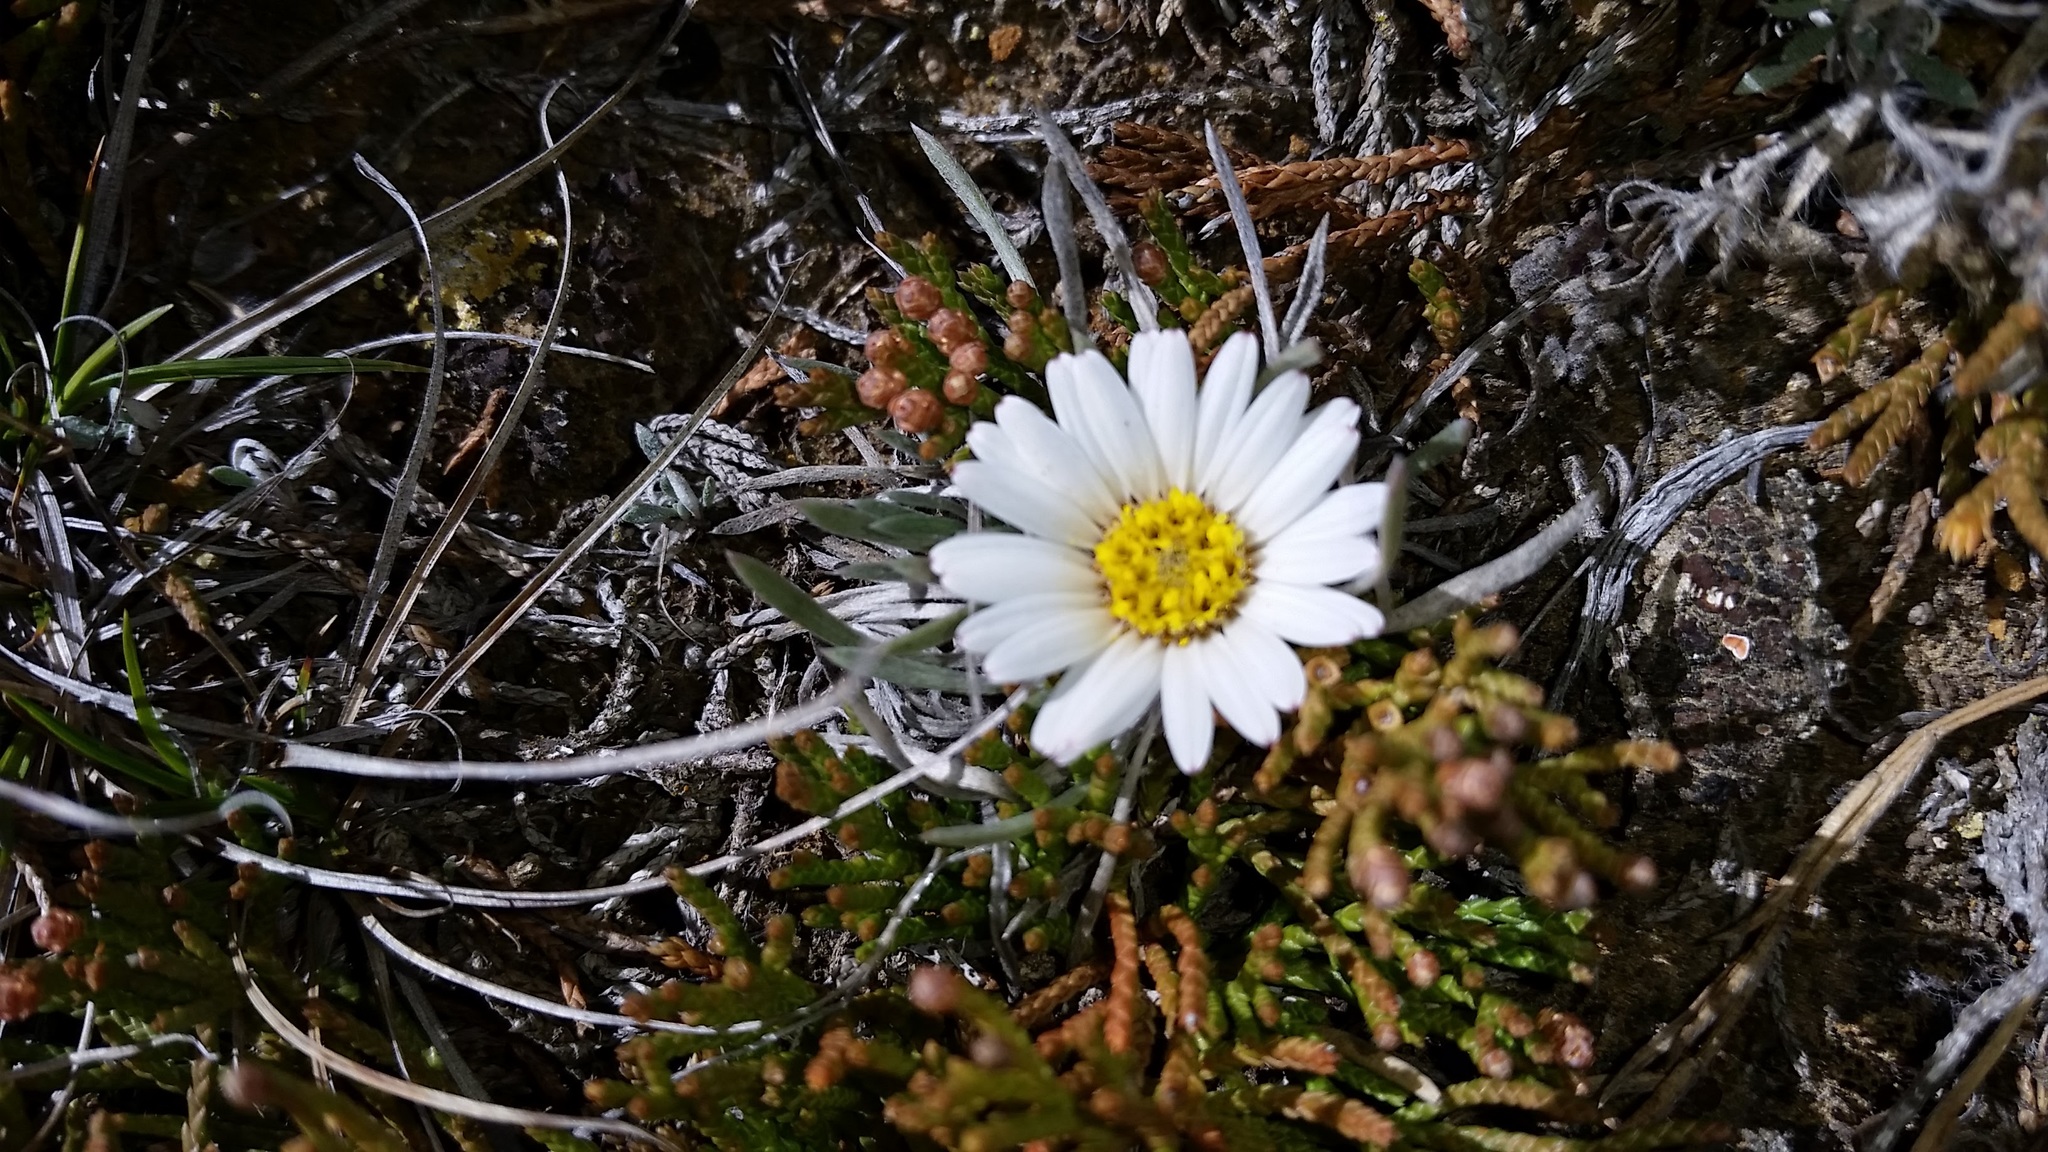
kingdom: Plantae
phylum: Tracheophyta
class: Magnoliopsida
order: Asterales
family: Asteraceae
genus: Townsendia
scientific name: Townsendia hookeri
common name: Hooker's townsend daisy
